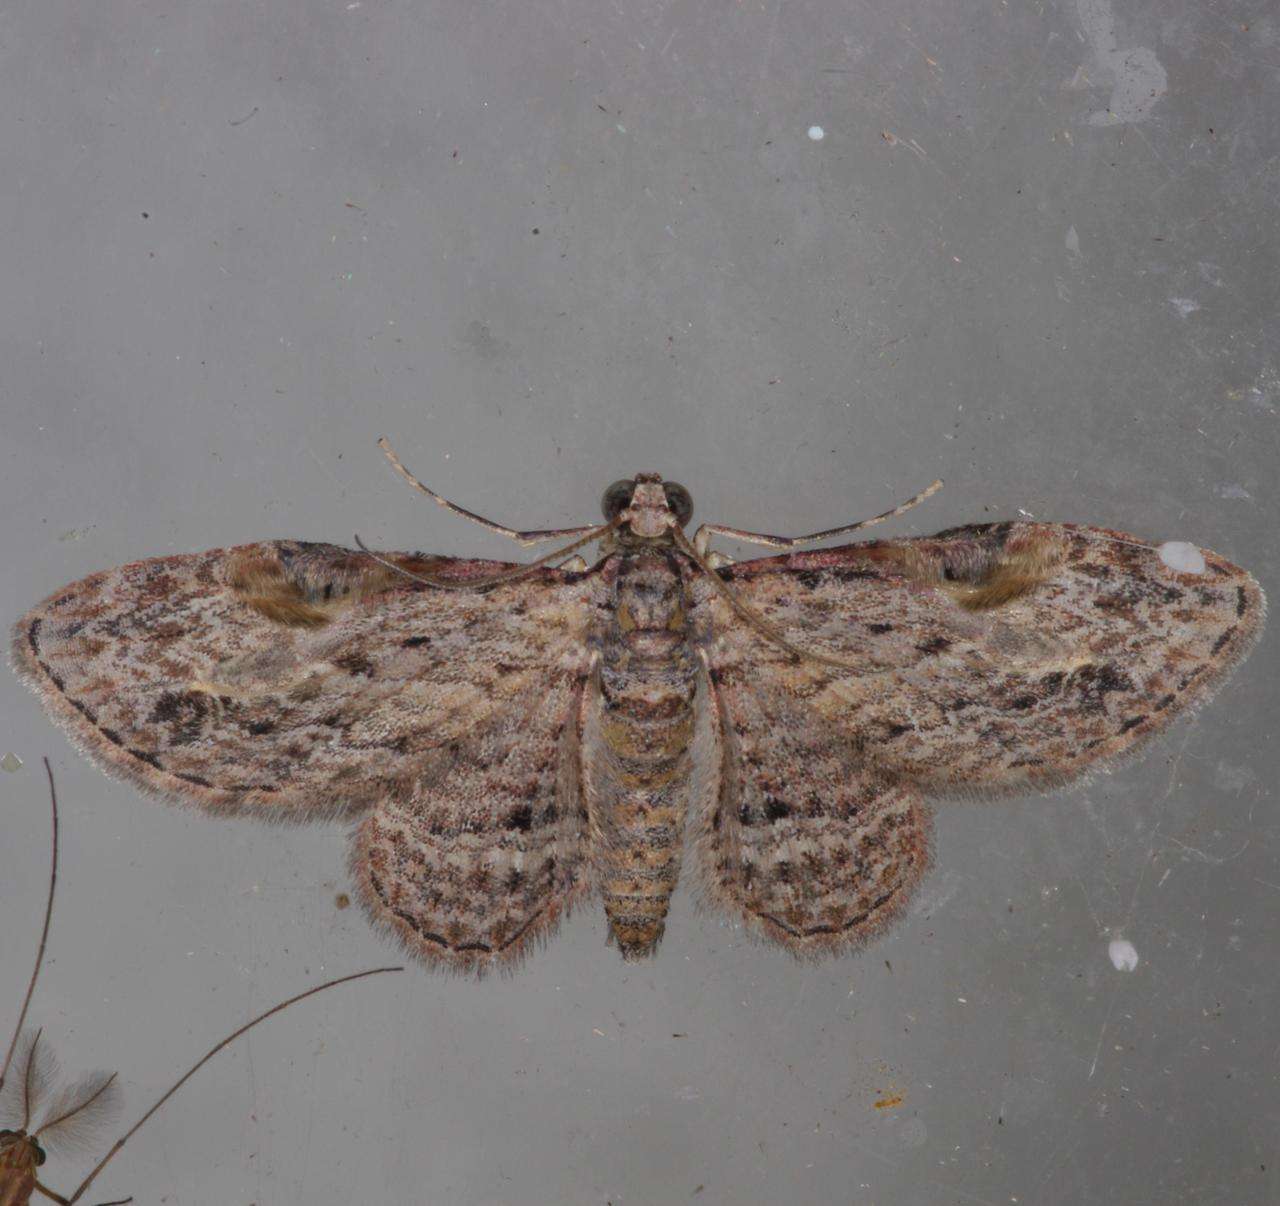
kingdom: Animalia
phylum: Arthropoda
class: Insecta
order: Lepidoptera
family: Geometridae
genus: Chloroclystis
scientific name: Chloroclystis insigillata
